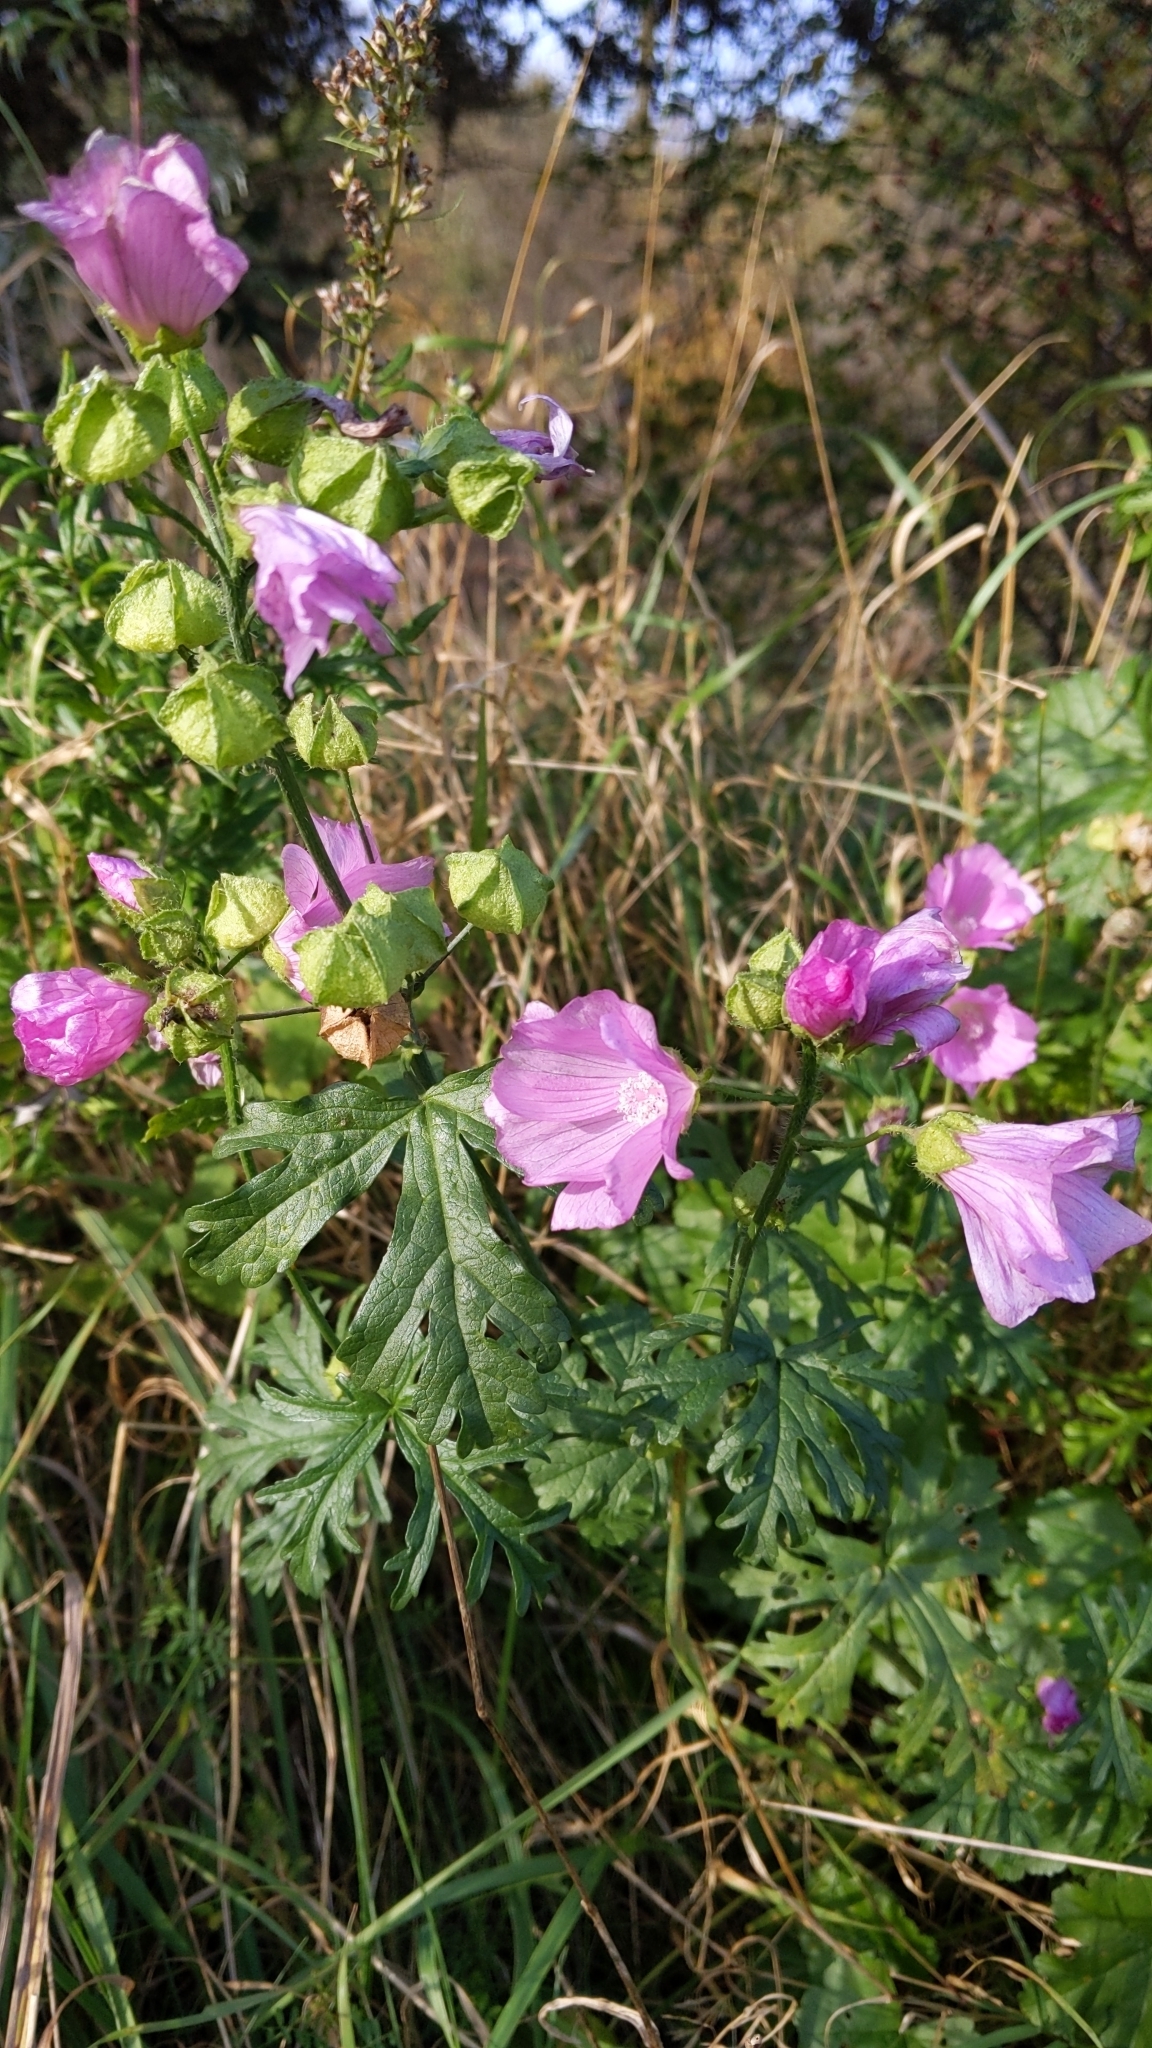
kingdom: Plantae
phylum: Tracheophyta
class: Magnoliopsida
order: Malvales
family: Malvaceae
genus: Malva
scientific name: Malva moschata
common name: Musk mallow
